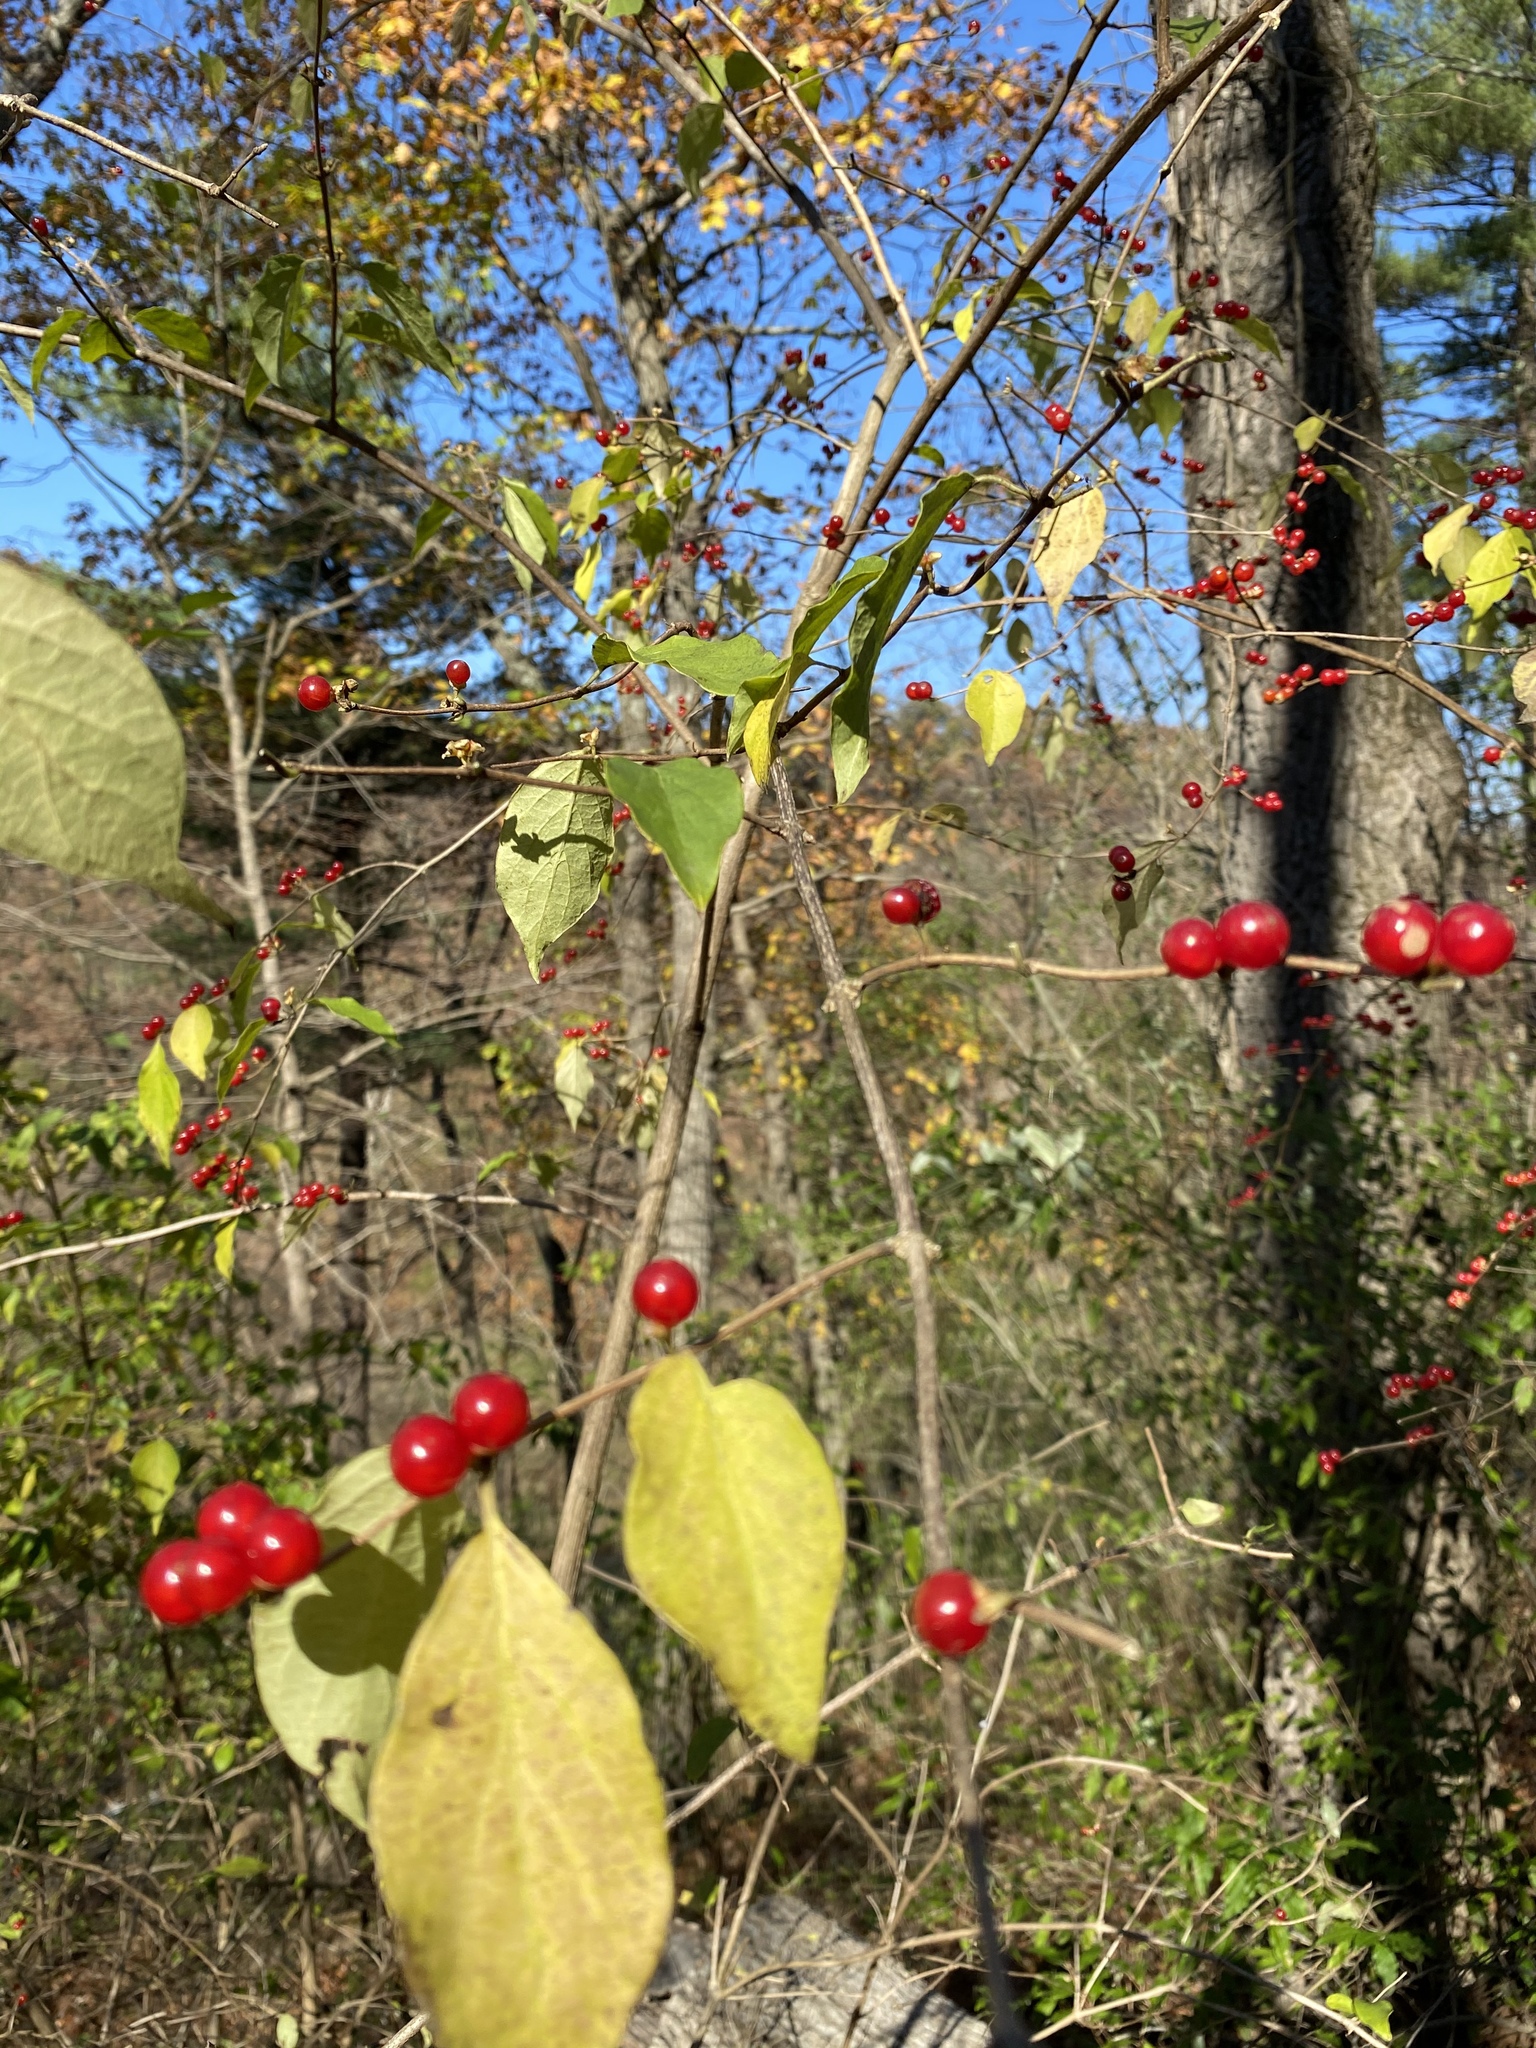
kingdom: Plantae
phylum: Tracheophyta
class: Magnoliopsida
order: Dipsacales
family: Caprifoliaceae
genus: Lonicera
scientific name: Lonicera maackii
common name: Amur honeysuckle
